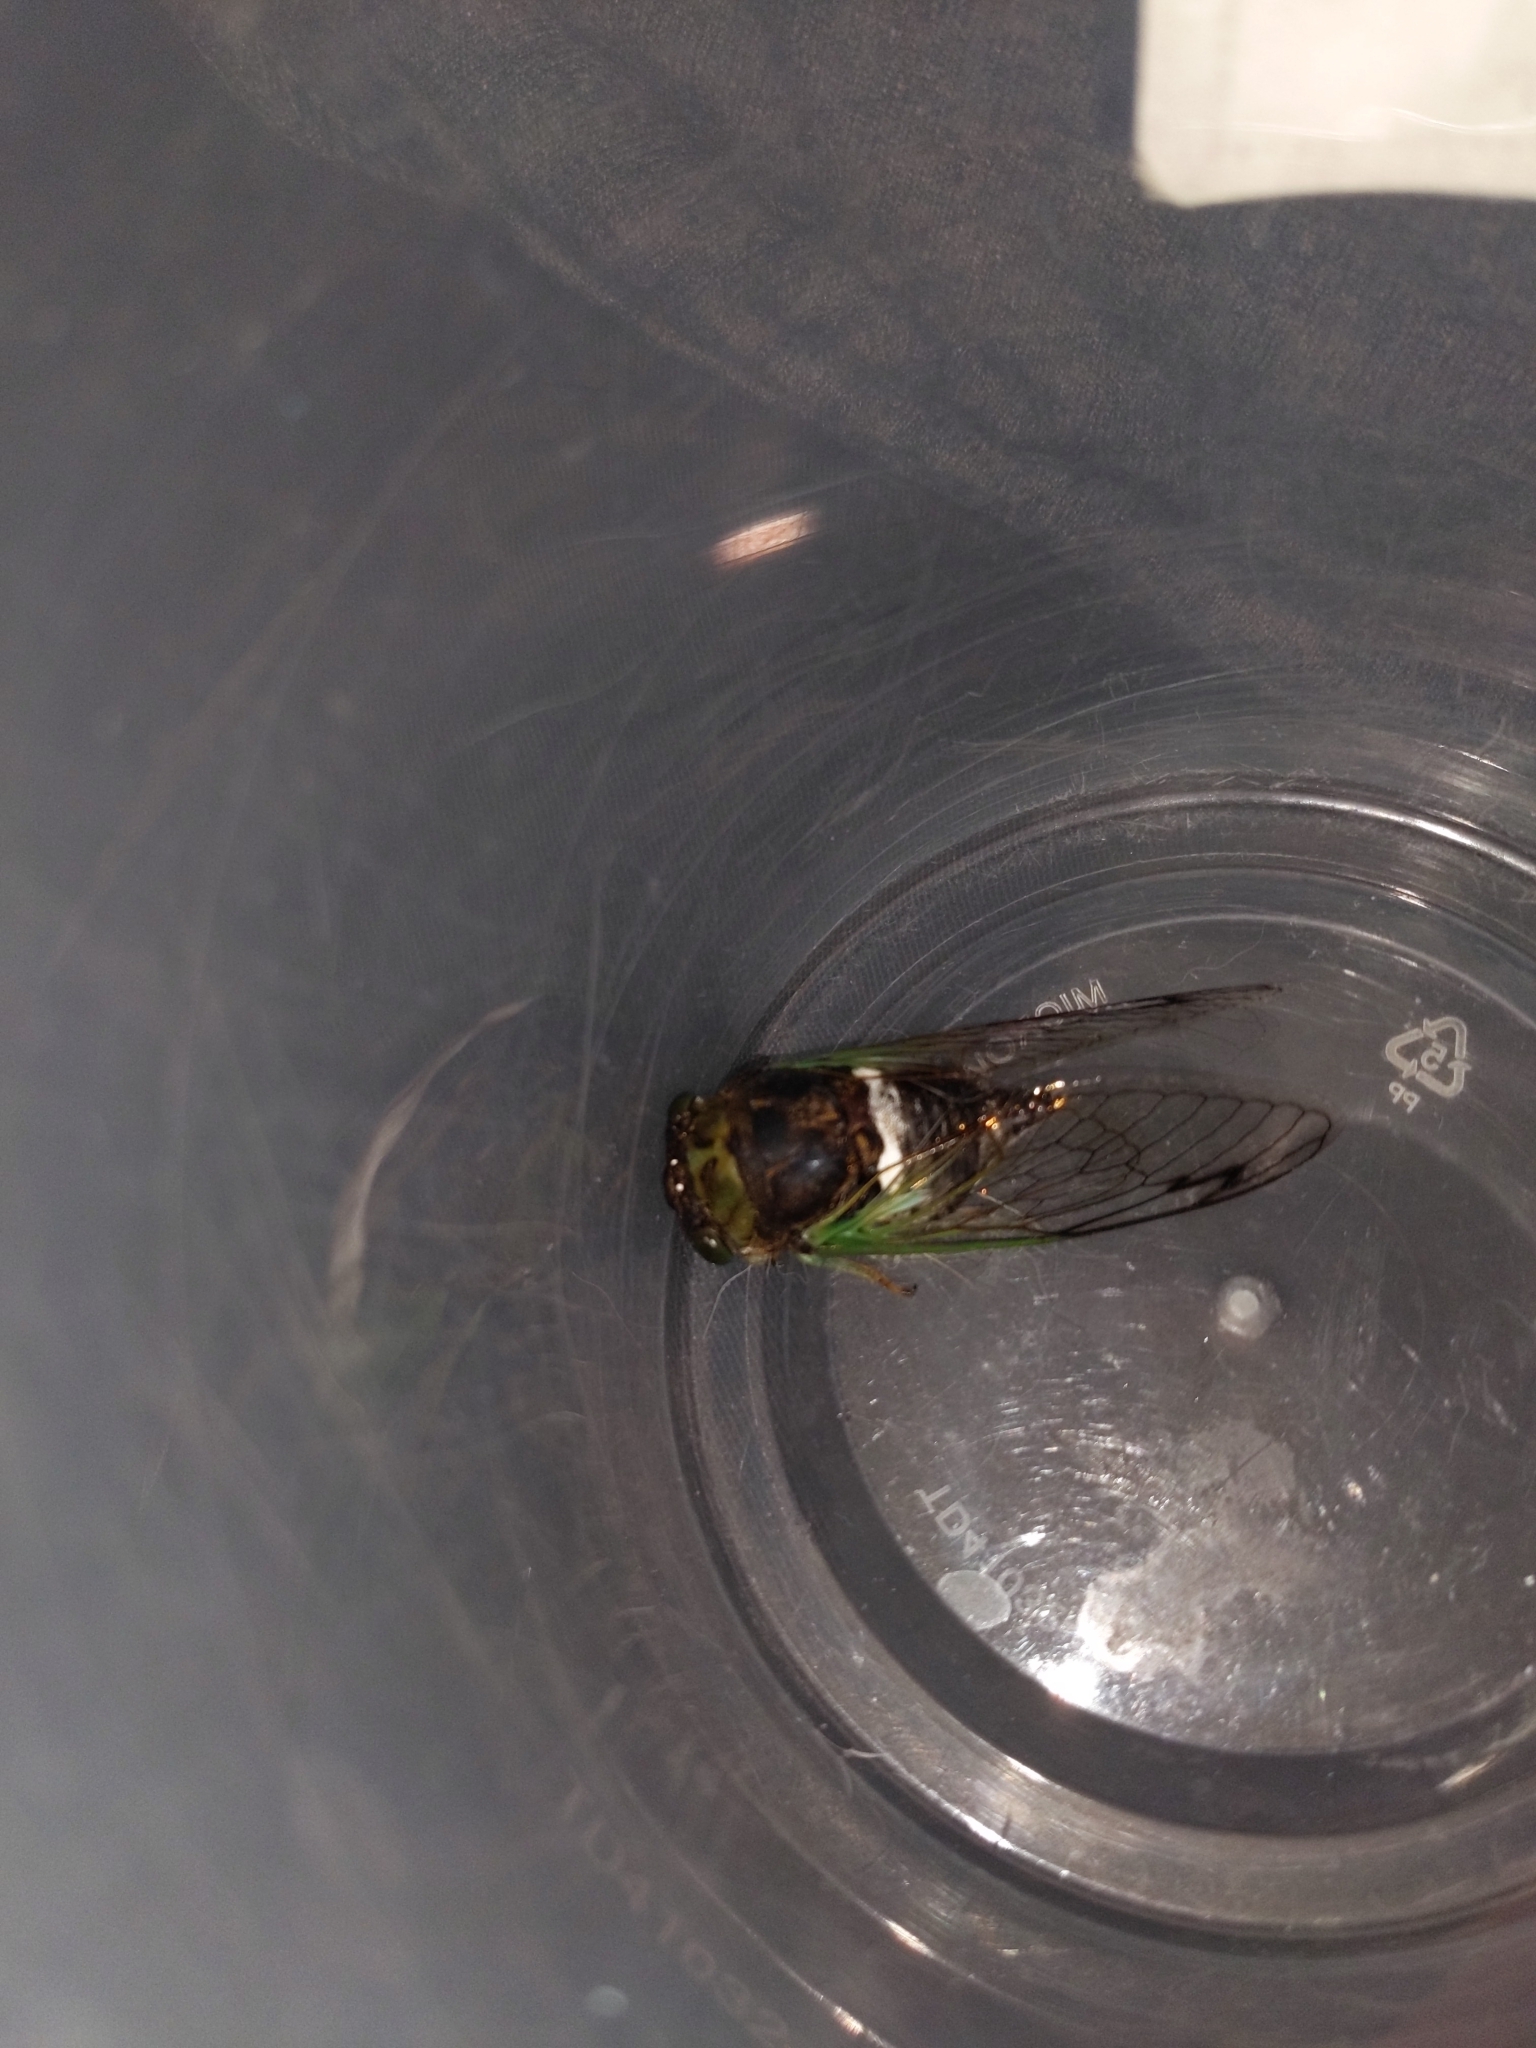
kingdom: Animalia
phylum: Arthropoda
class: Insecta
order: Hemiptera
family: Cicadidae
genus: Neotibicen
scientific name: Neotibicen tibicen
